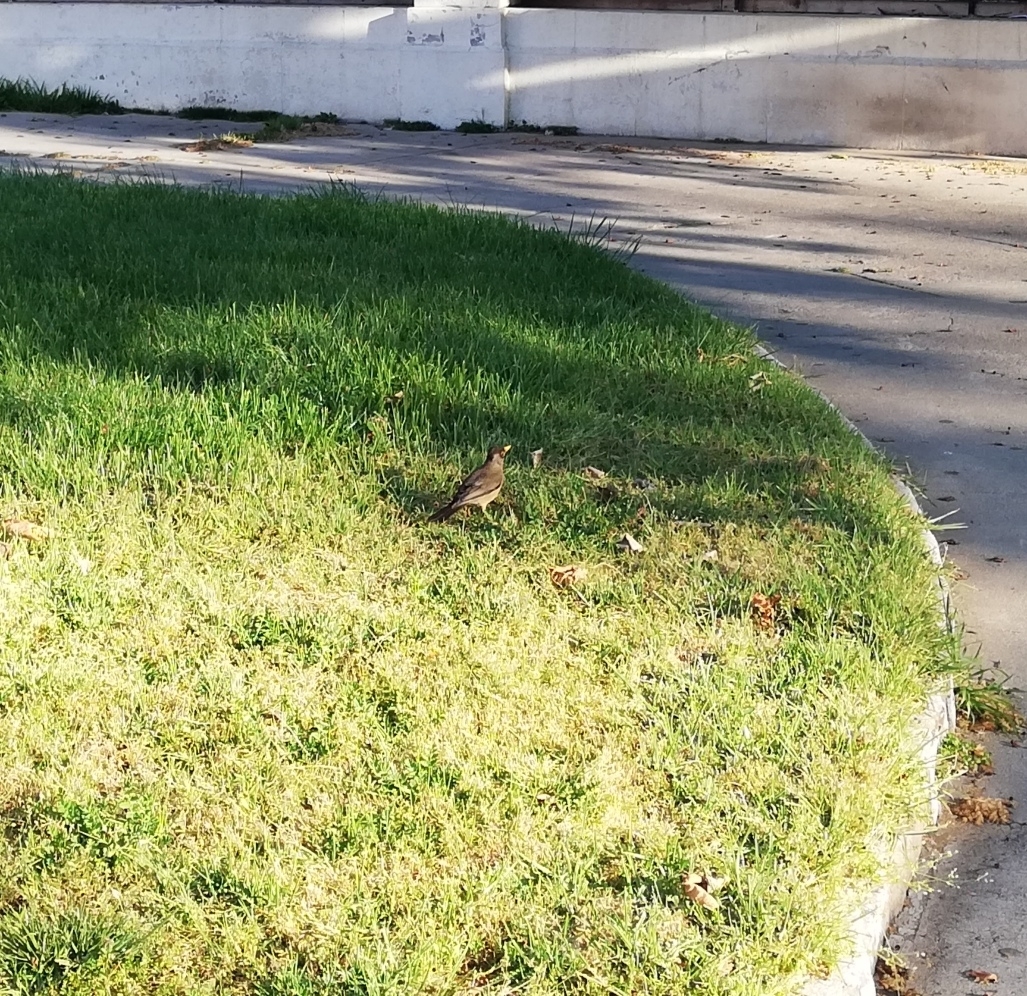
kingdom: Animalia
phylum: Chordata
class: Aves
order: Passeriformes
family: Turdidae
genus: Turdus
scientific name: Turdus falcklandii
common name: Austral thrush
